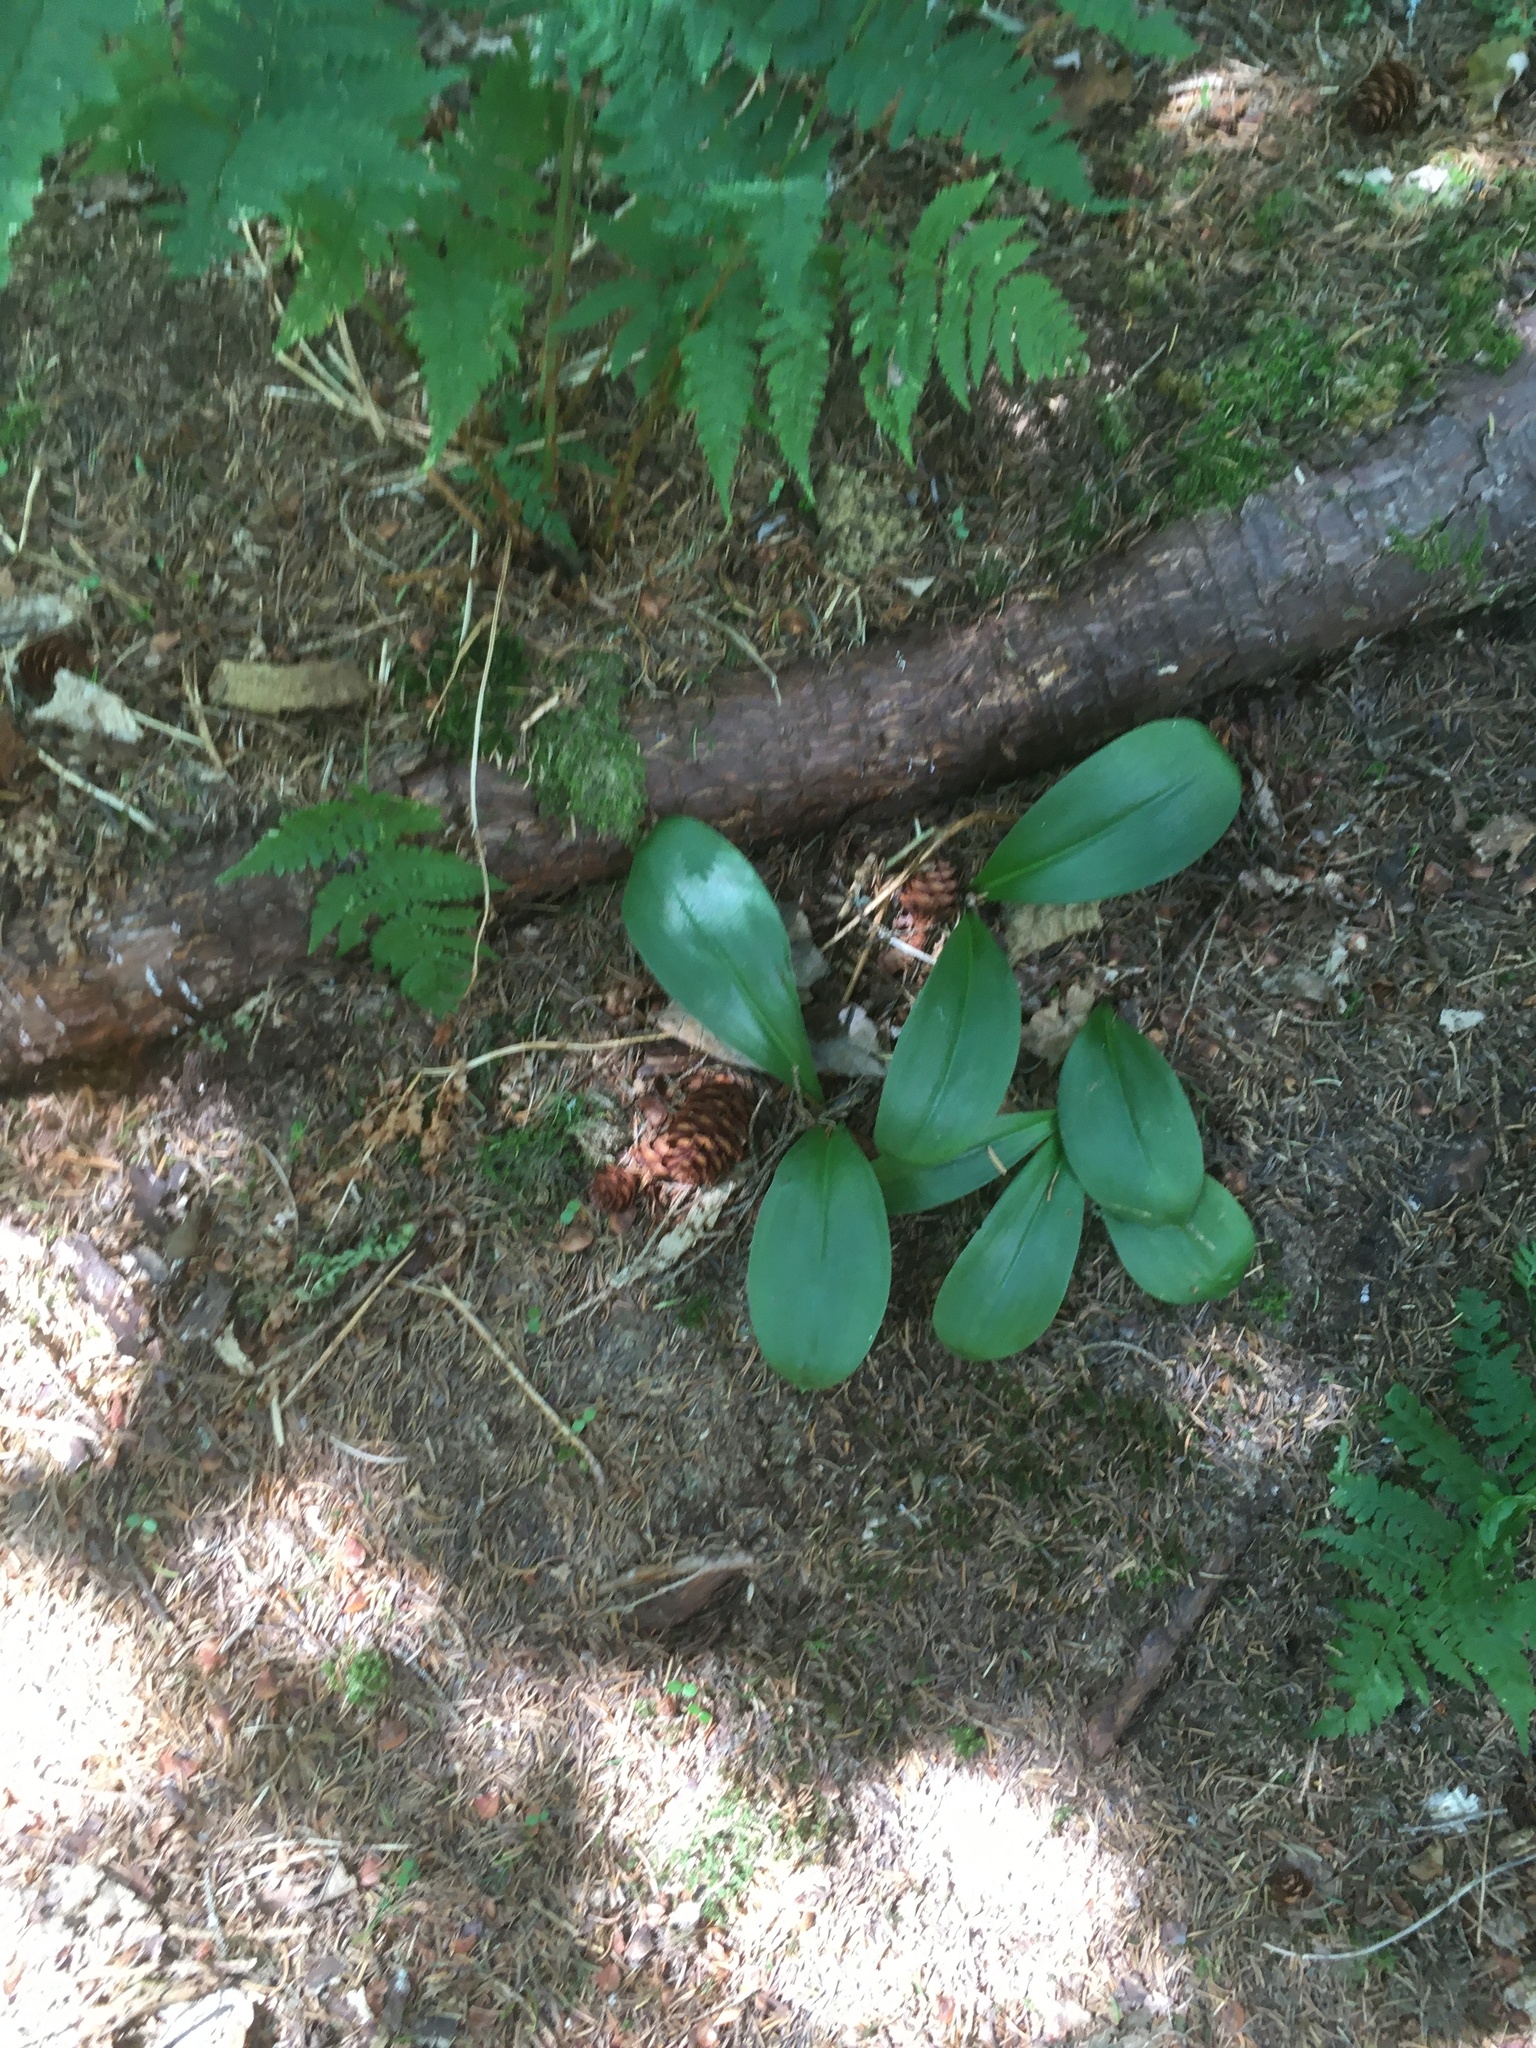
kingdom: Plantae
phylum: Tracheophyta
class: Liliopsida
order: Liliales
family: Liliaceae
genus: Clintonia
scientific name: Clintonia borealis
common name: Yellow clintonia
